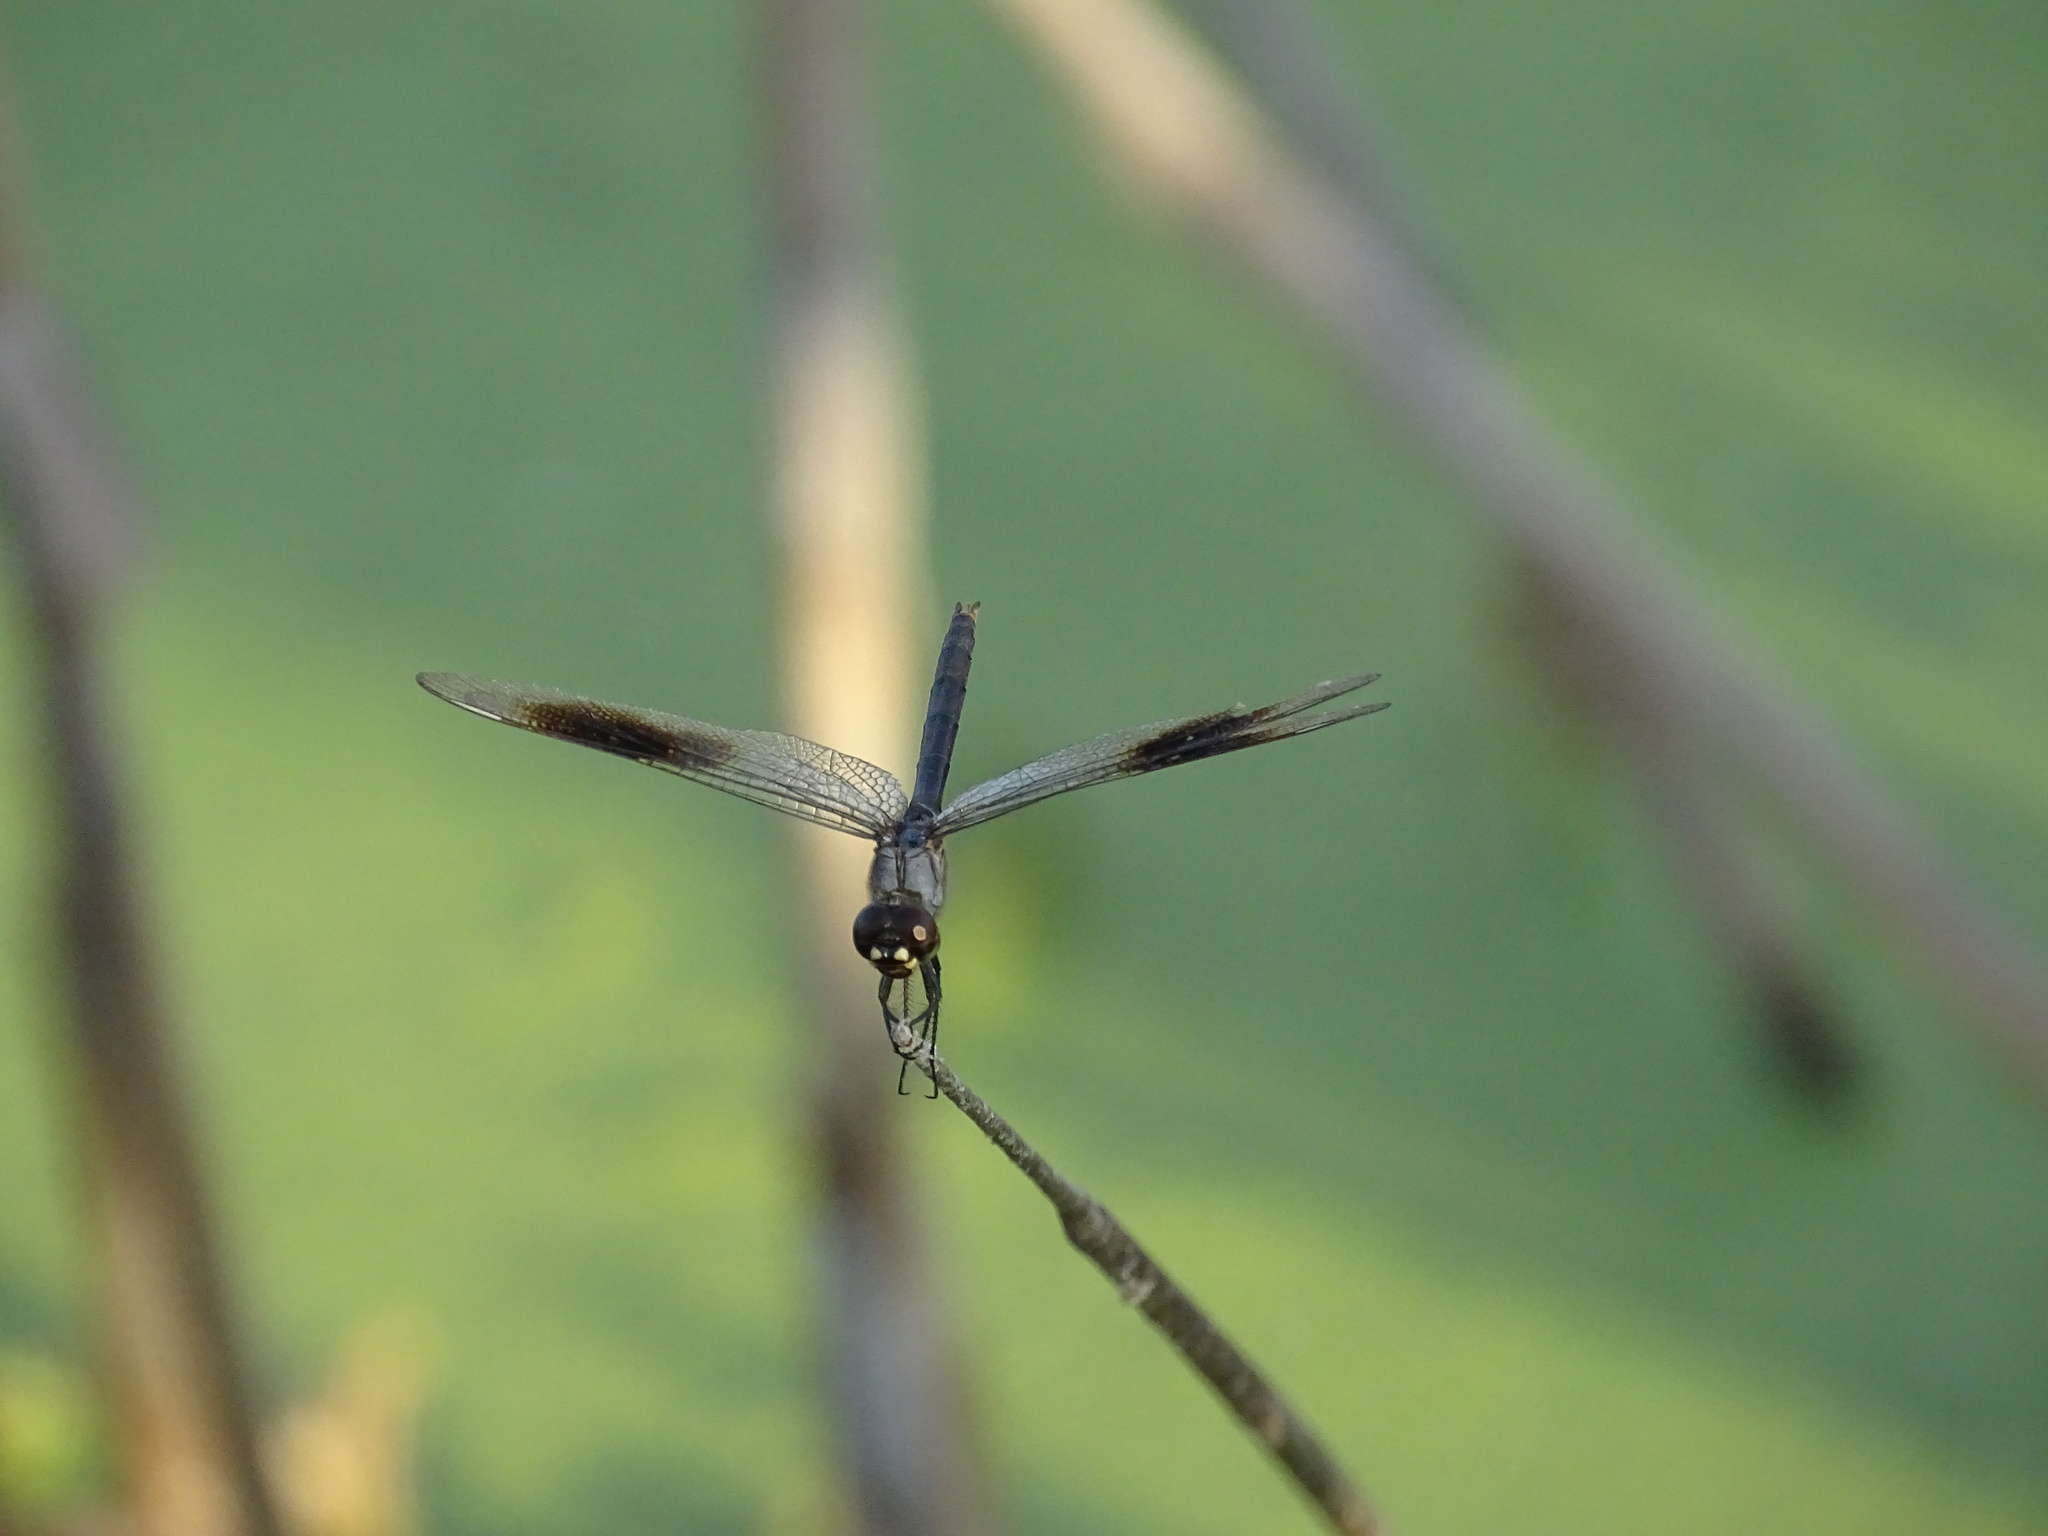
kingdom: Animalia
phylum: Arthropoda
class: Insecta
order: Odonata
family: Libellulidae
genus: Brachymesia
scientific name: Brachymesia gravida
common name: Four-spotted pennant
